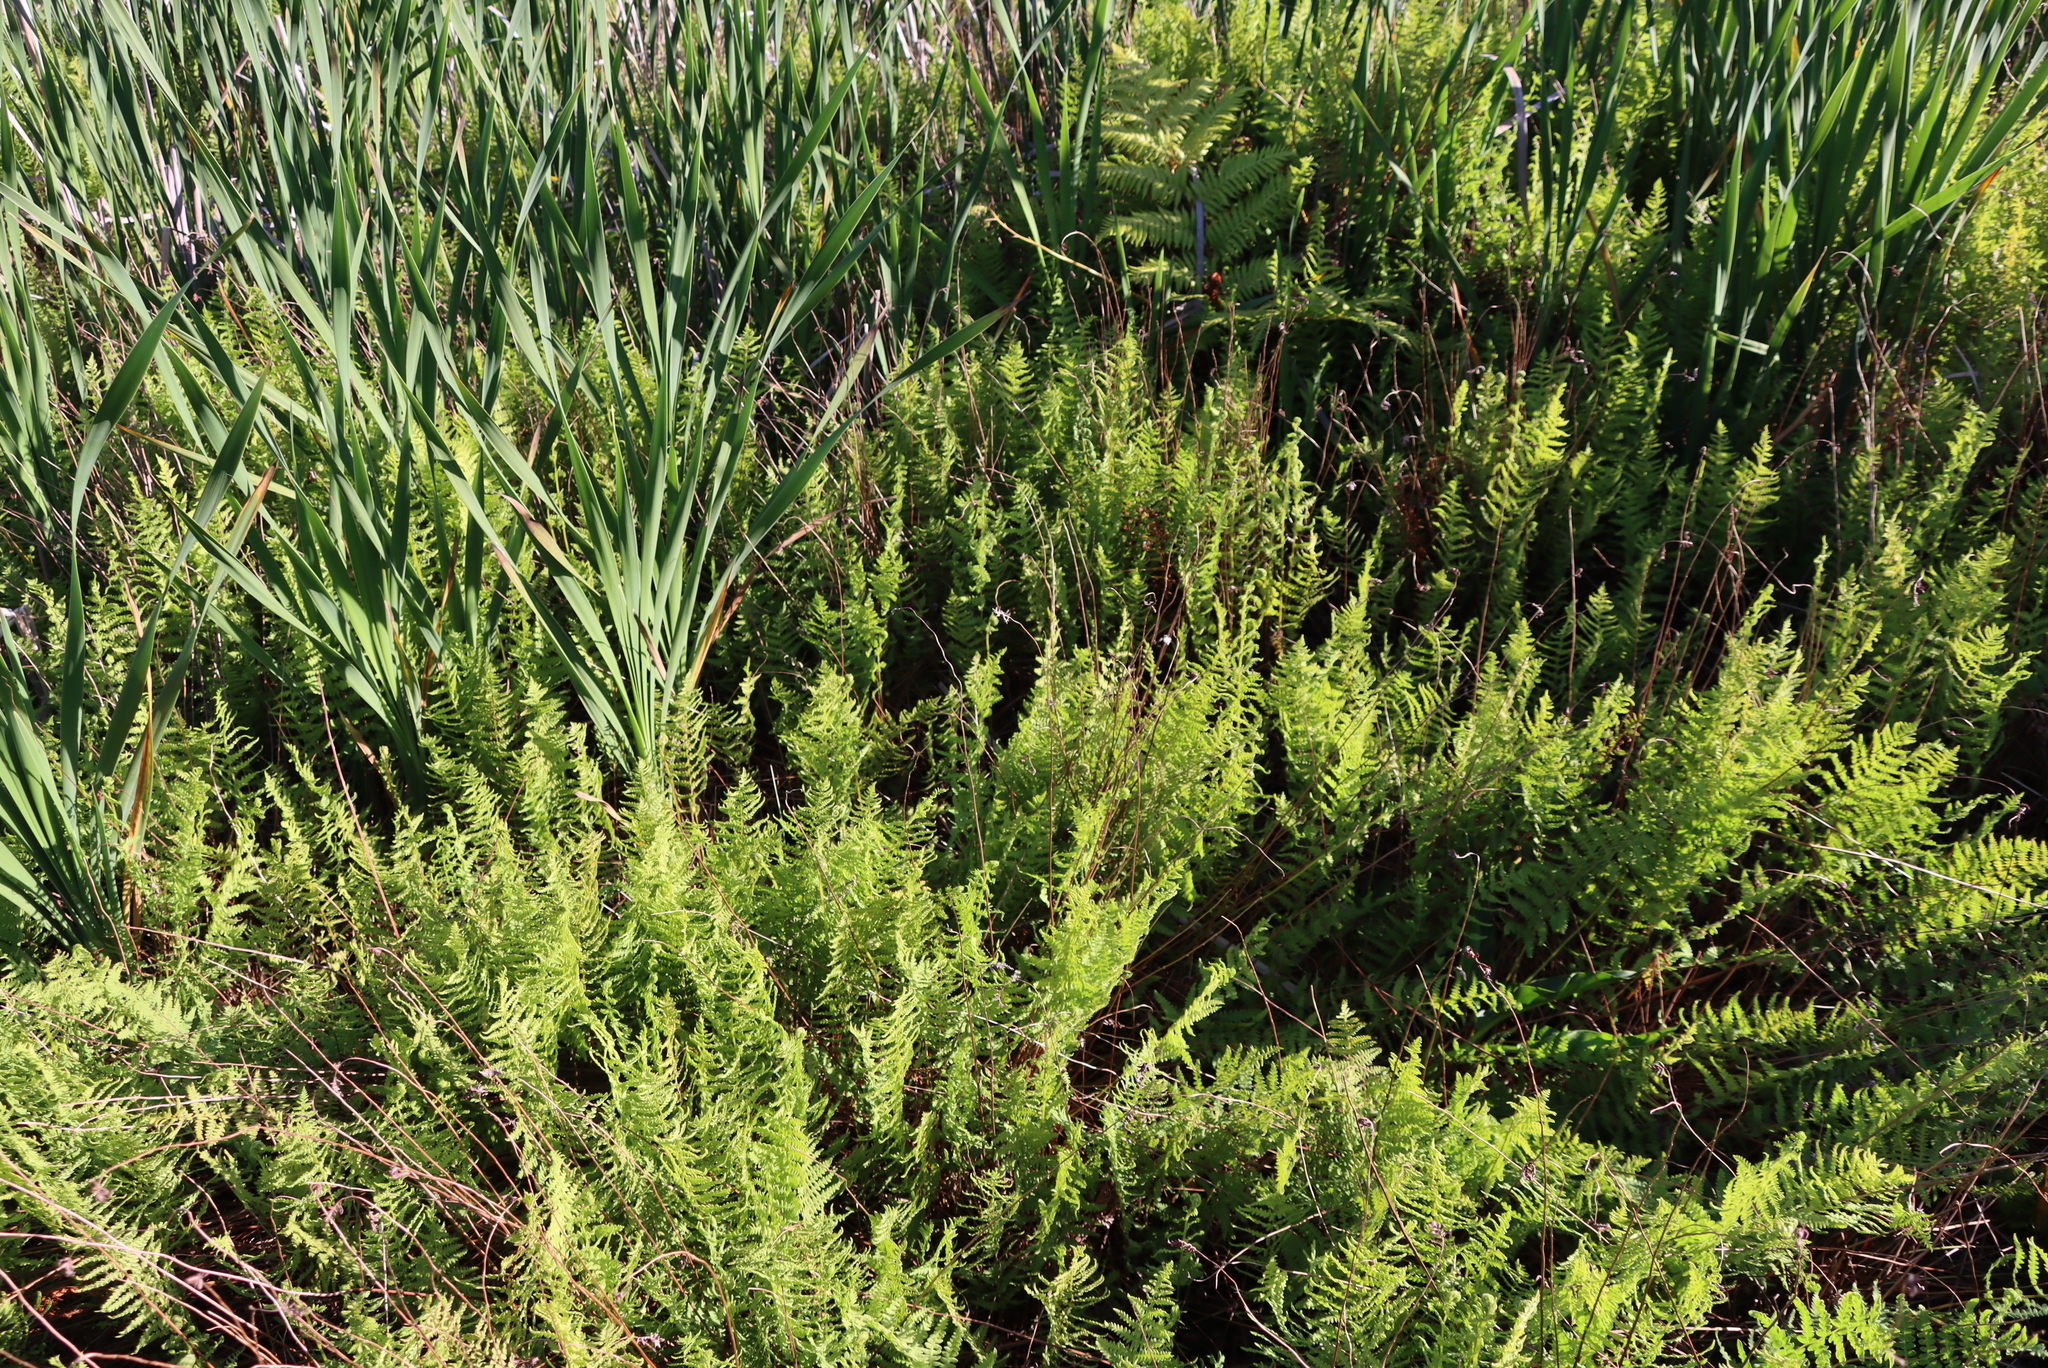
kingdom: Plantae
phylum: Tracheophyta
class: Polypodiopsida
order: Polypodiales
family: Thelypteridaceae
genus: Thelypteris
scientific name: Thelypteris confluens
